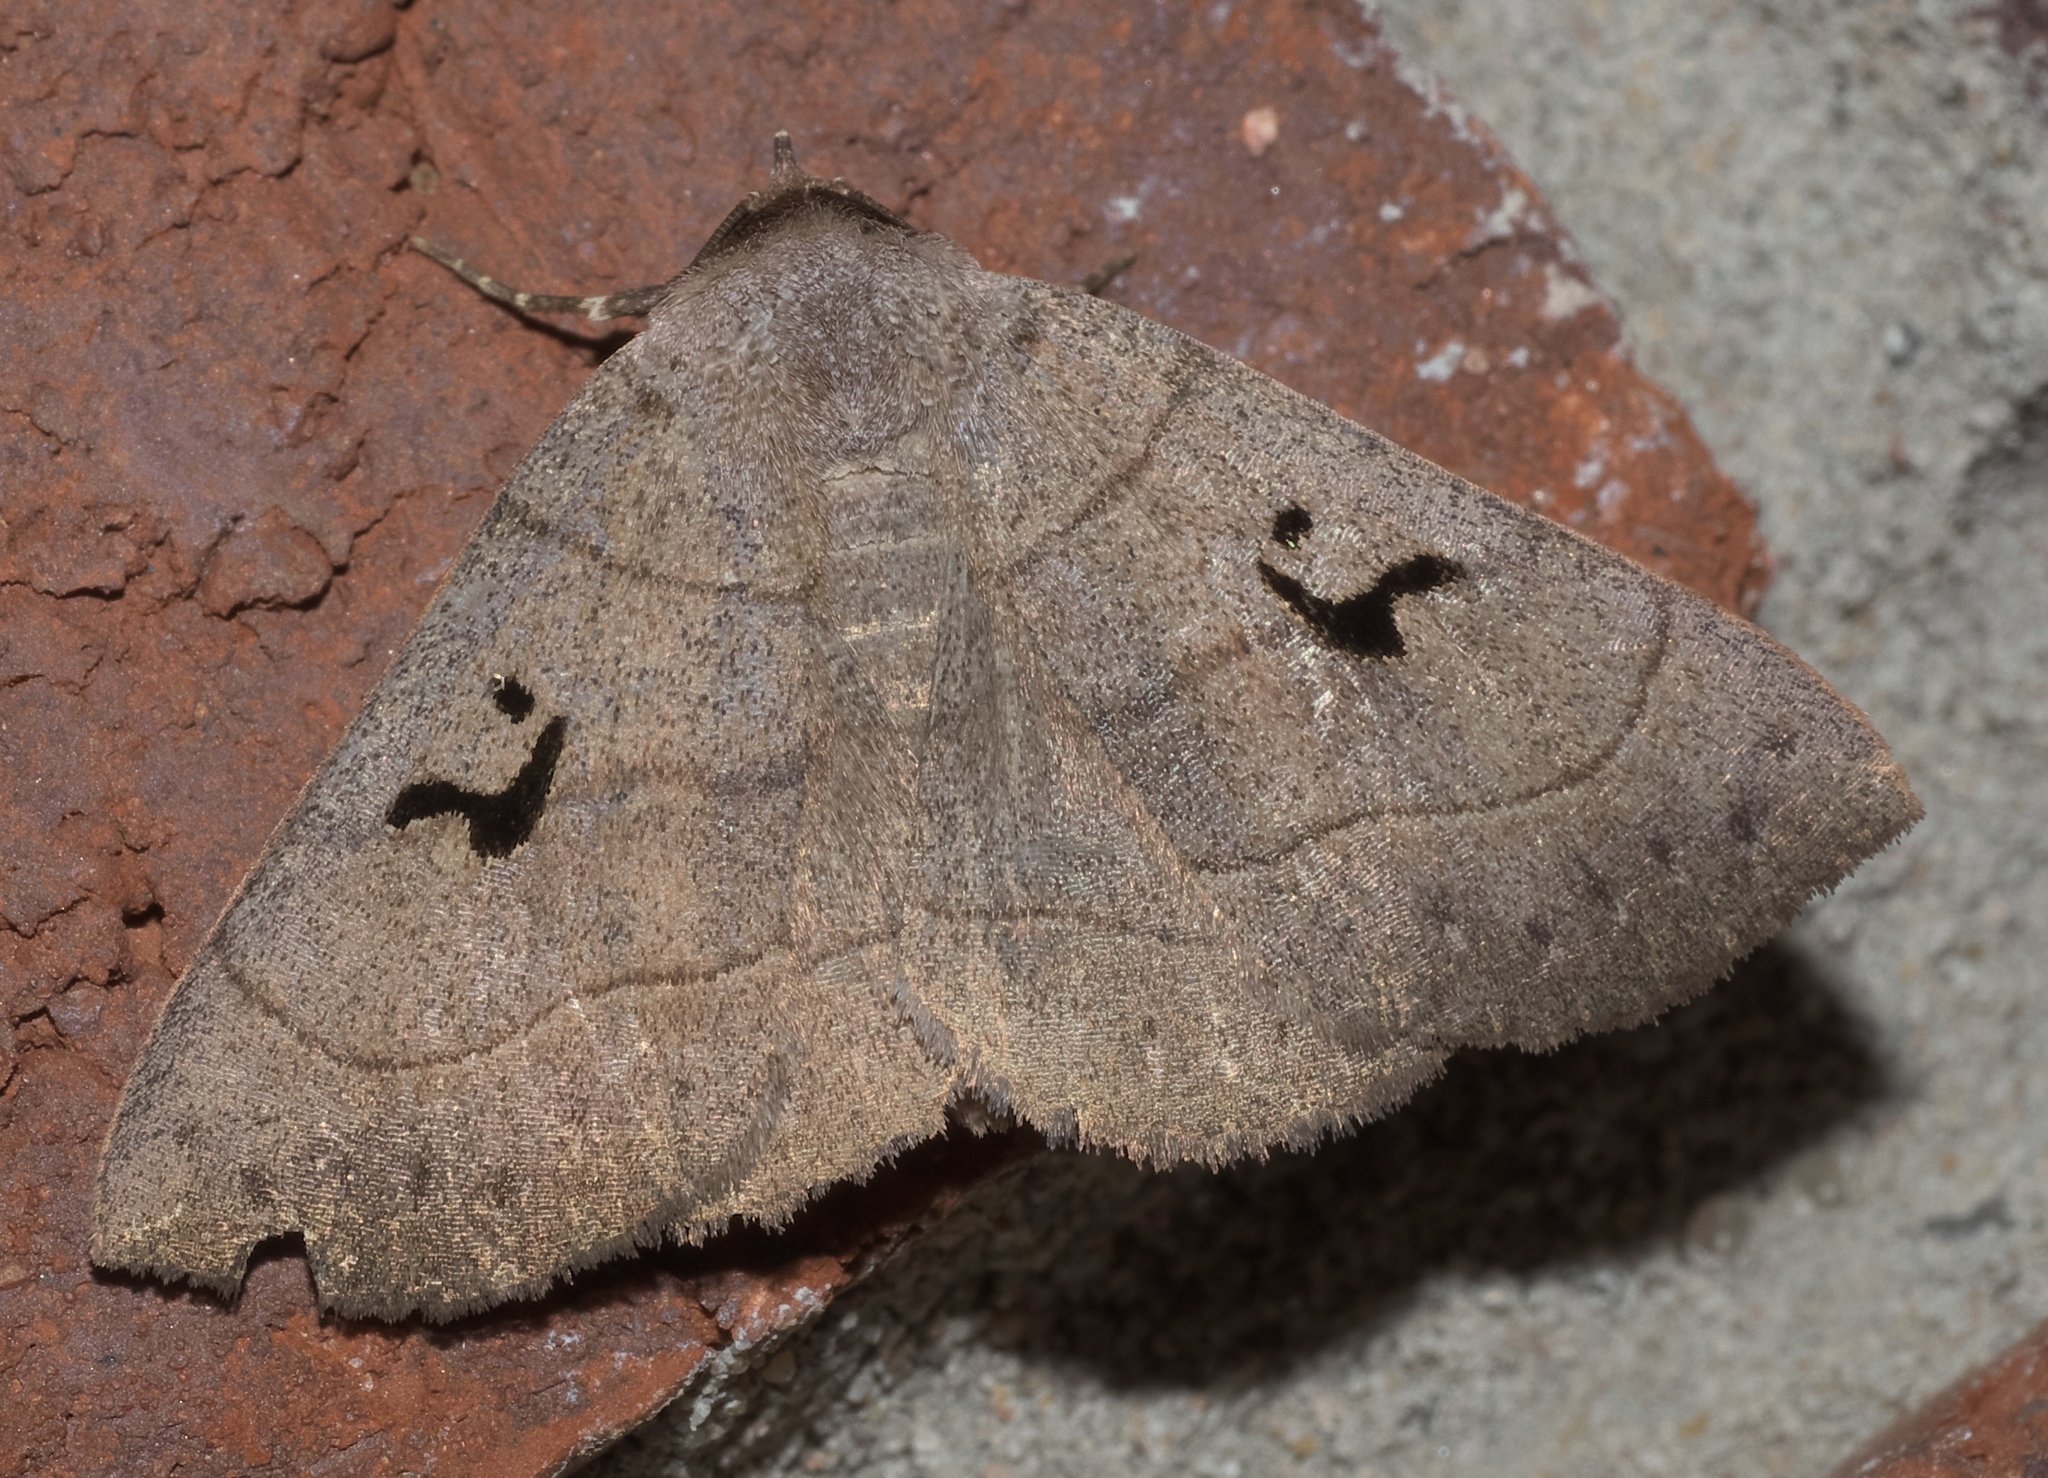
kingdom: Animalia
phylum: Arthropoda
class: Insecta
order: Lepidoptera
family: Erebidae
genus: Panopoda
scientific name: Panopoda carneicosta
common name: Brown panopoda moth
